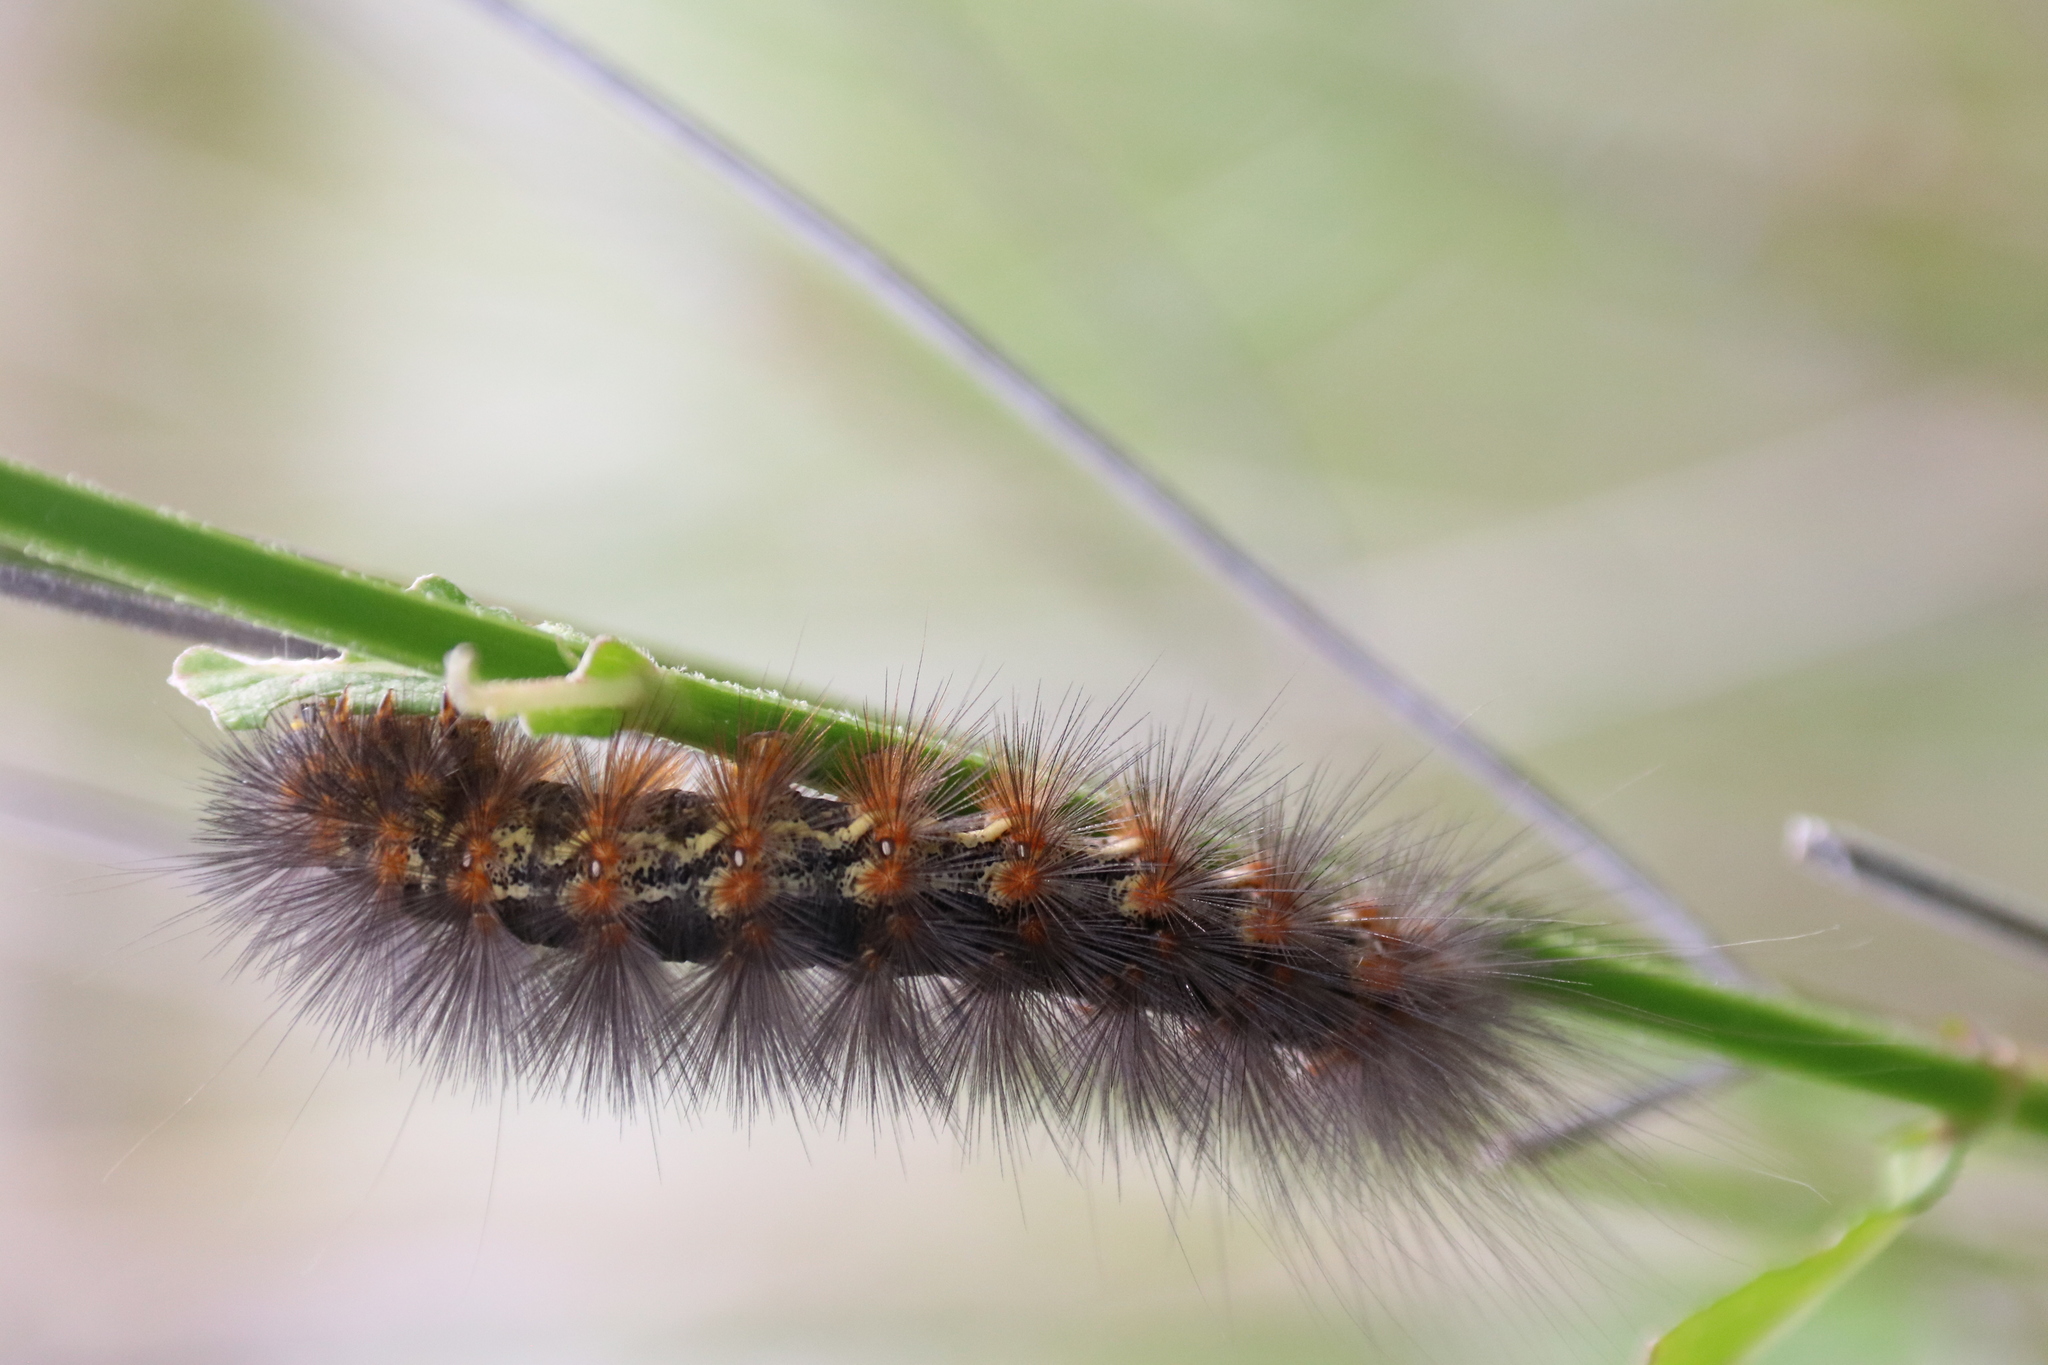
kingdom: Animalia
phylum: Arthropoda
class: Insecta
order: Lepidoptera
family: Erebidae
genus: Estigmene
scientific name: Estigmene acrea
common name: Salt marsh moth
